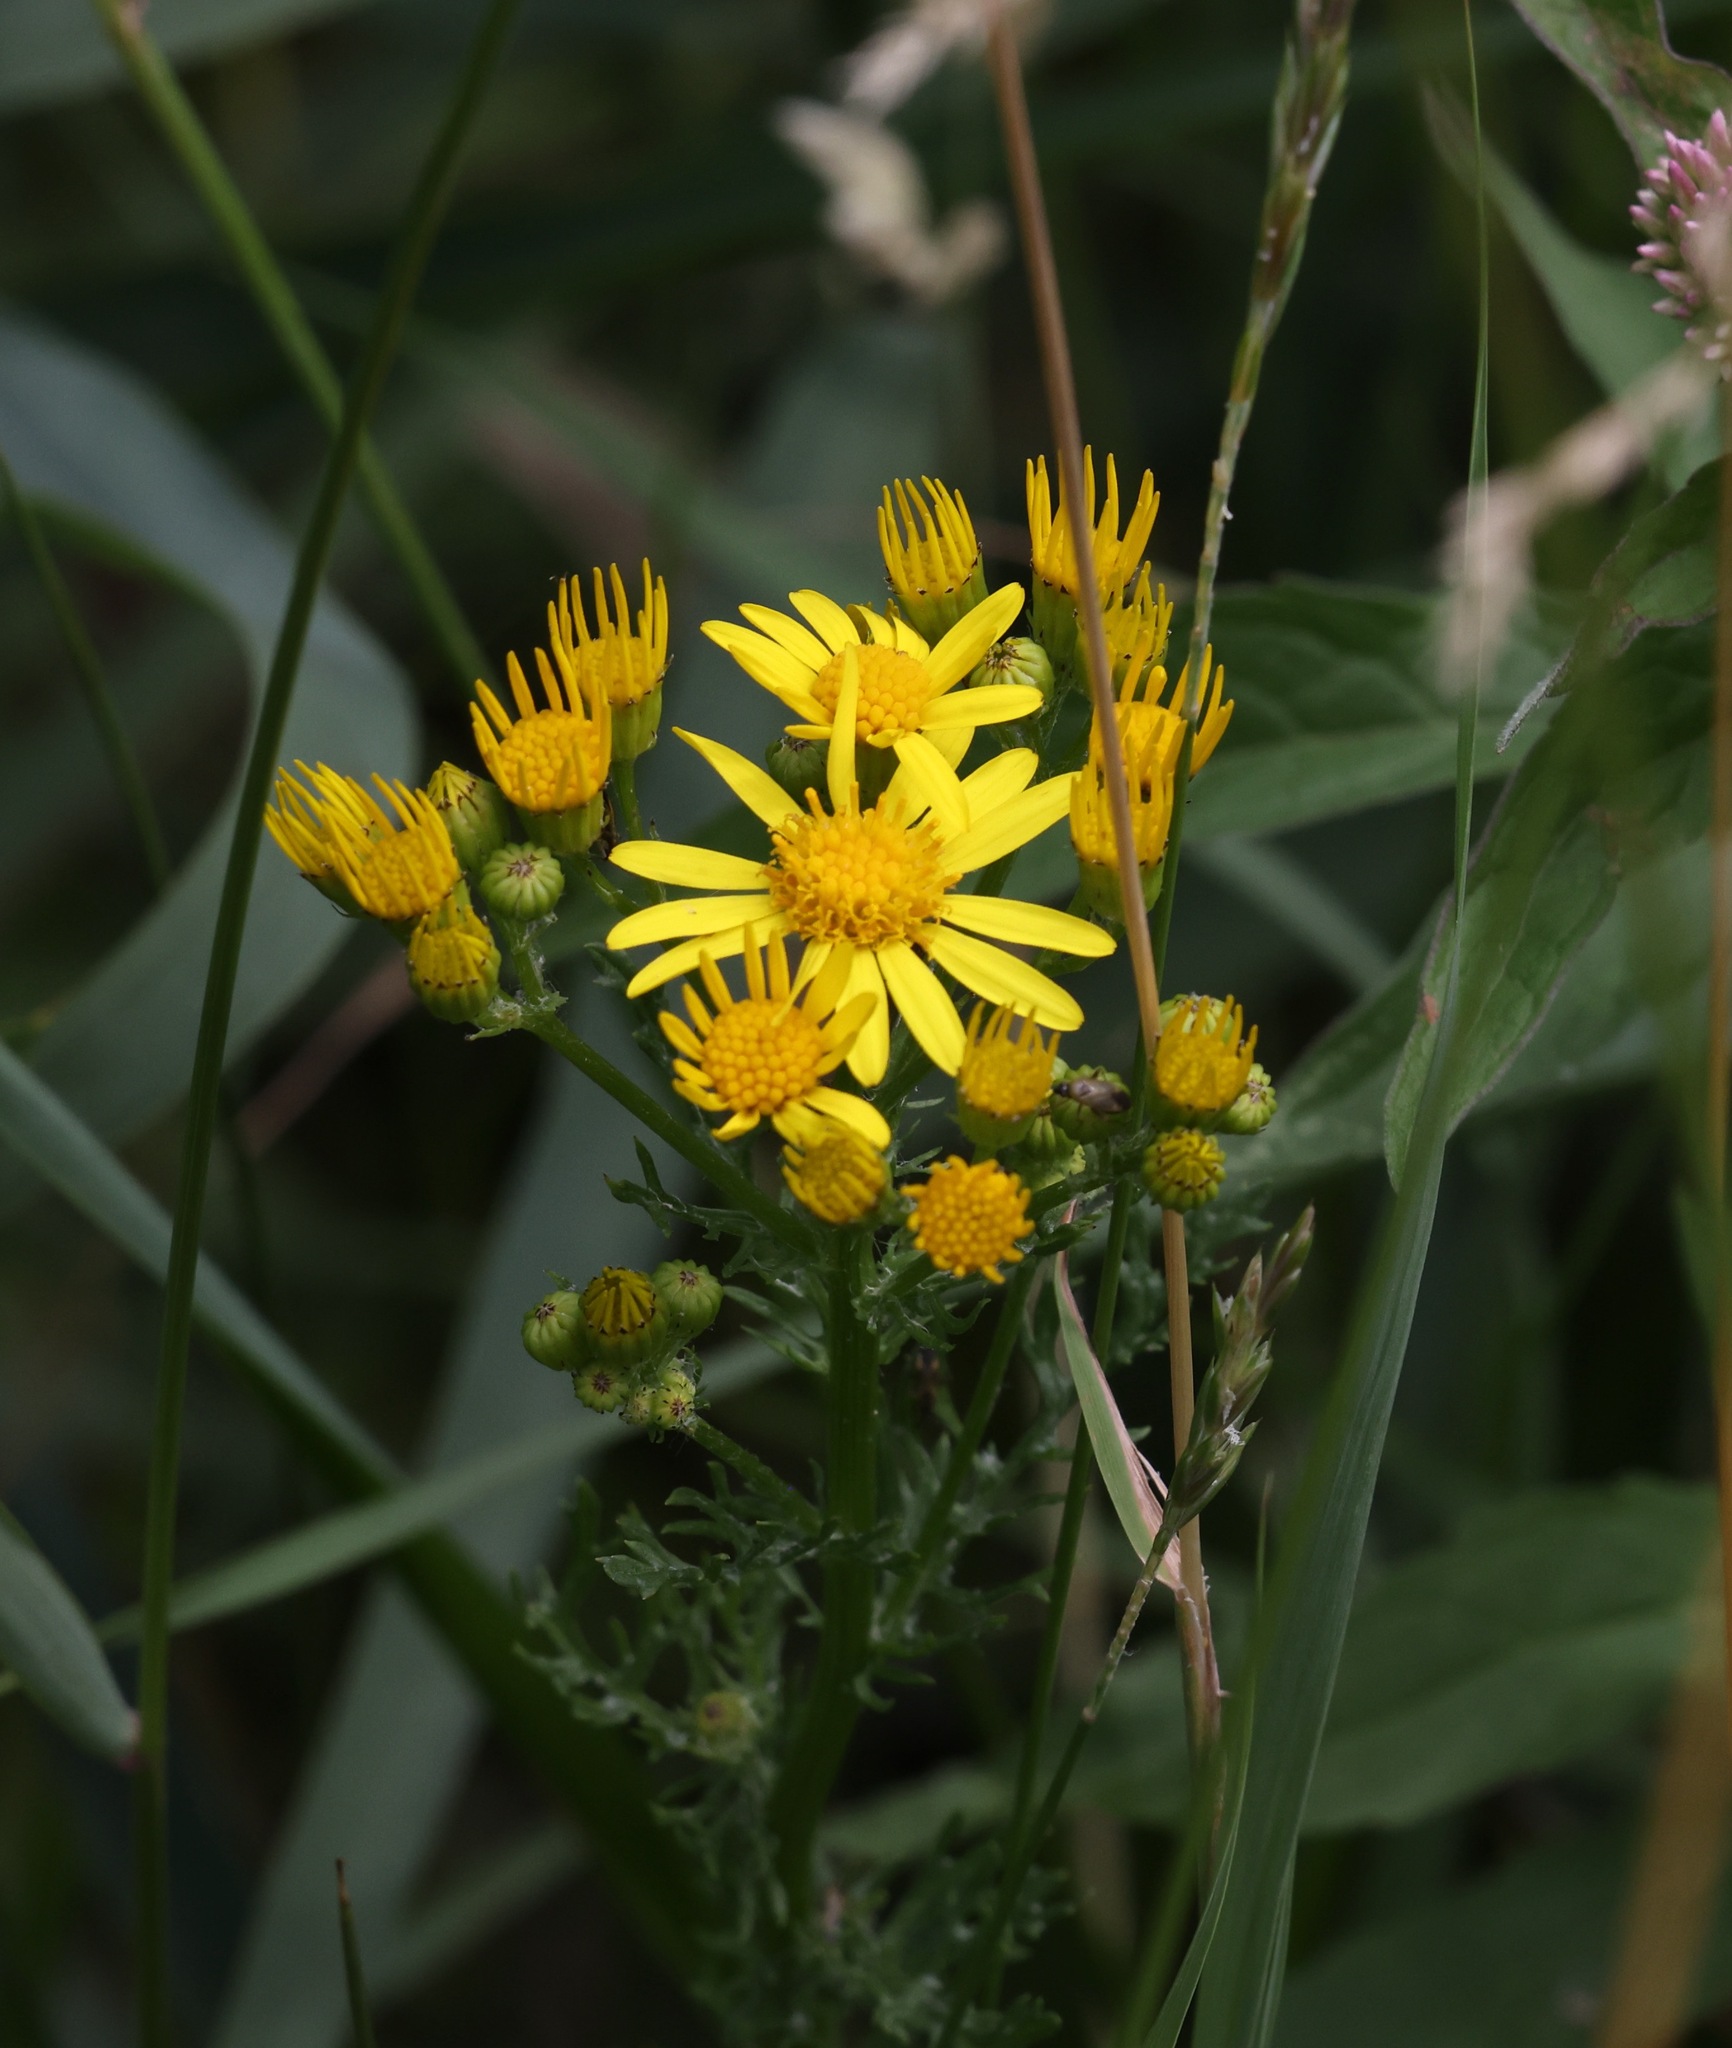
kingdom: Plantae
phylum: Tracheophyta
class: Magnoliopsida
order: Asterales
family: Asteraceae
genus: Jacobaea
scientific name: Jacobaea vulgaris
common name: Stinking willie
